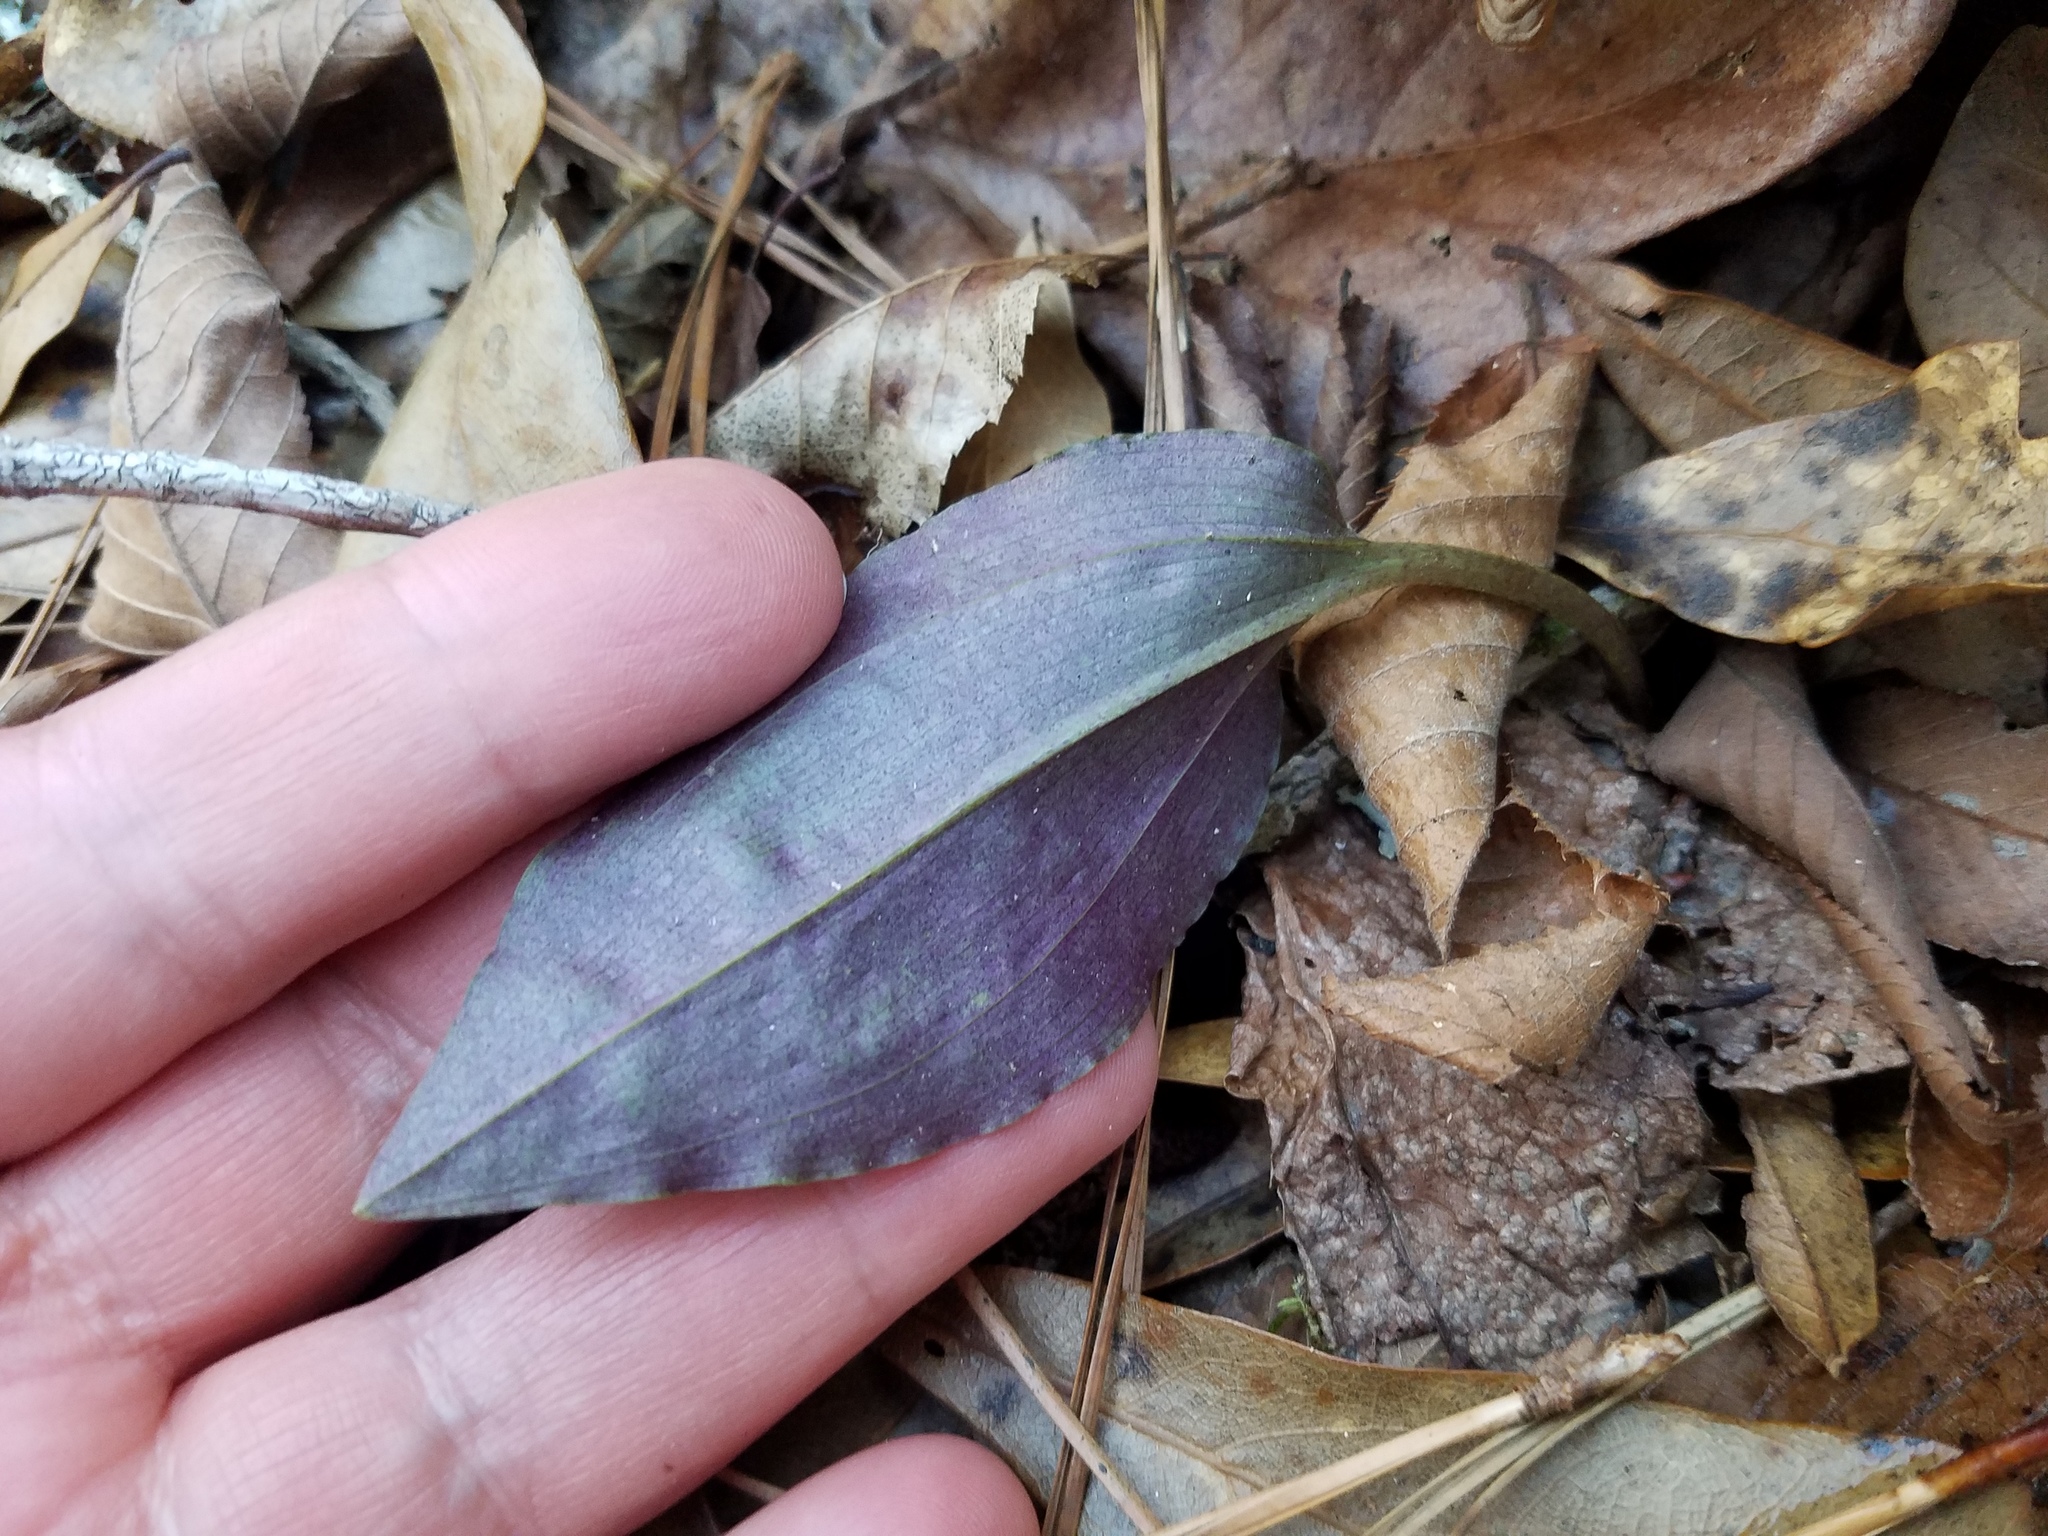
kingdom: Plantae
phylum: Tracheophyta
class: Liliopsida
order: Asparagales
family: Orchidaceae
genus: Tipularia
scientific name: Tipularia discolor
